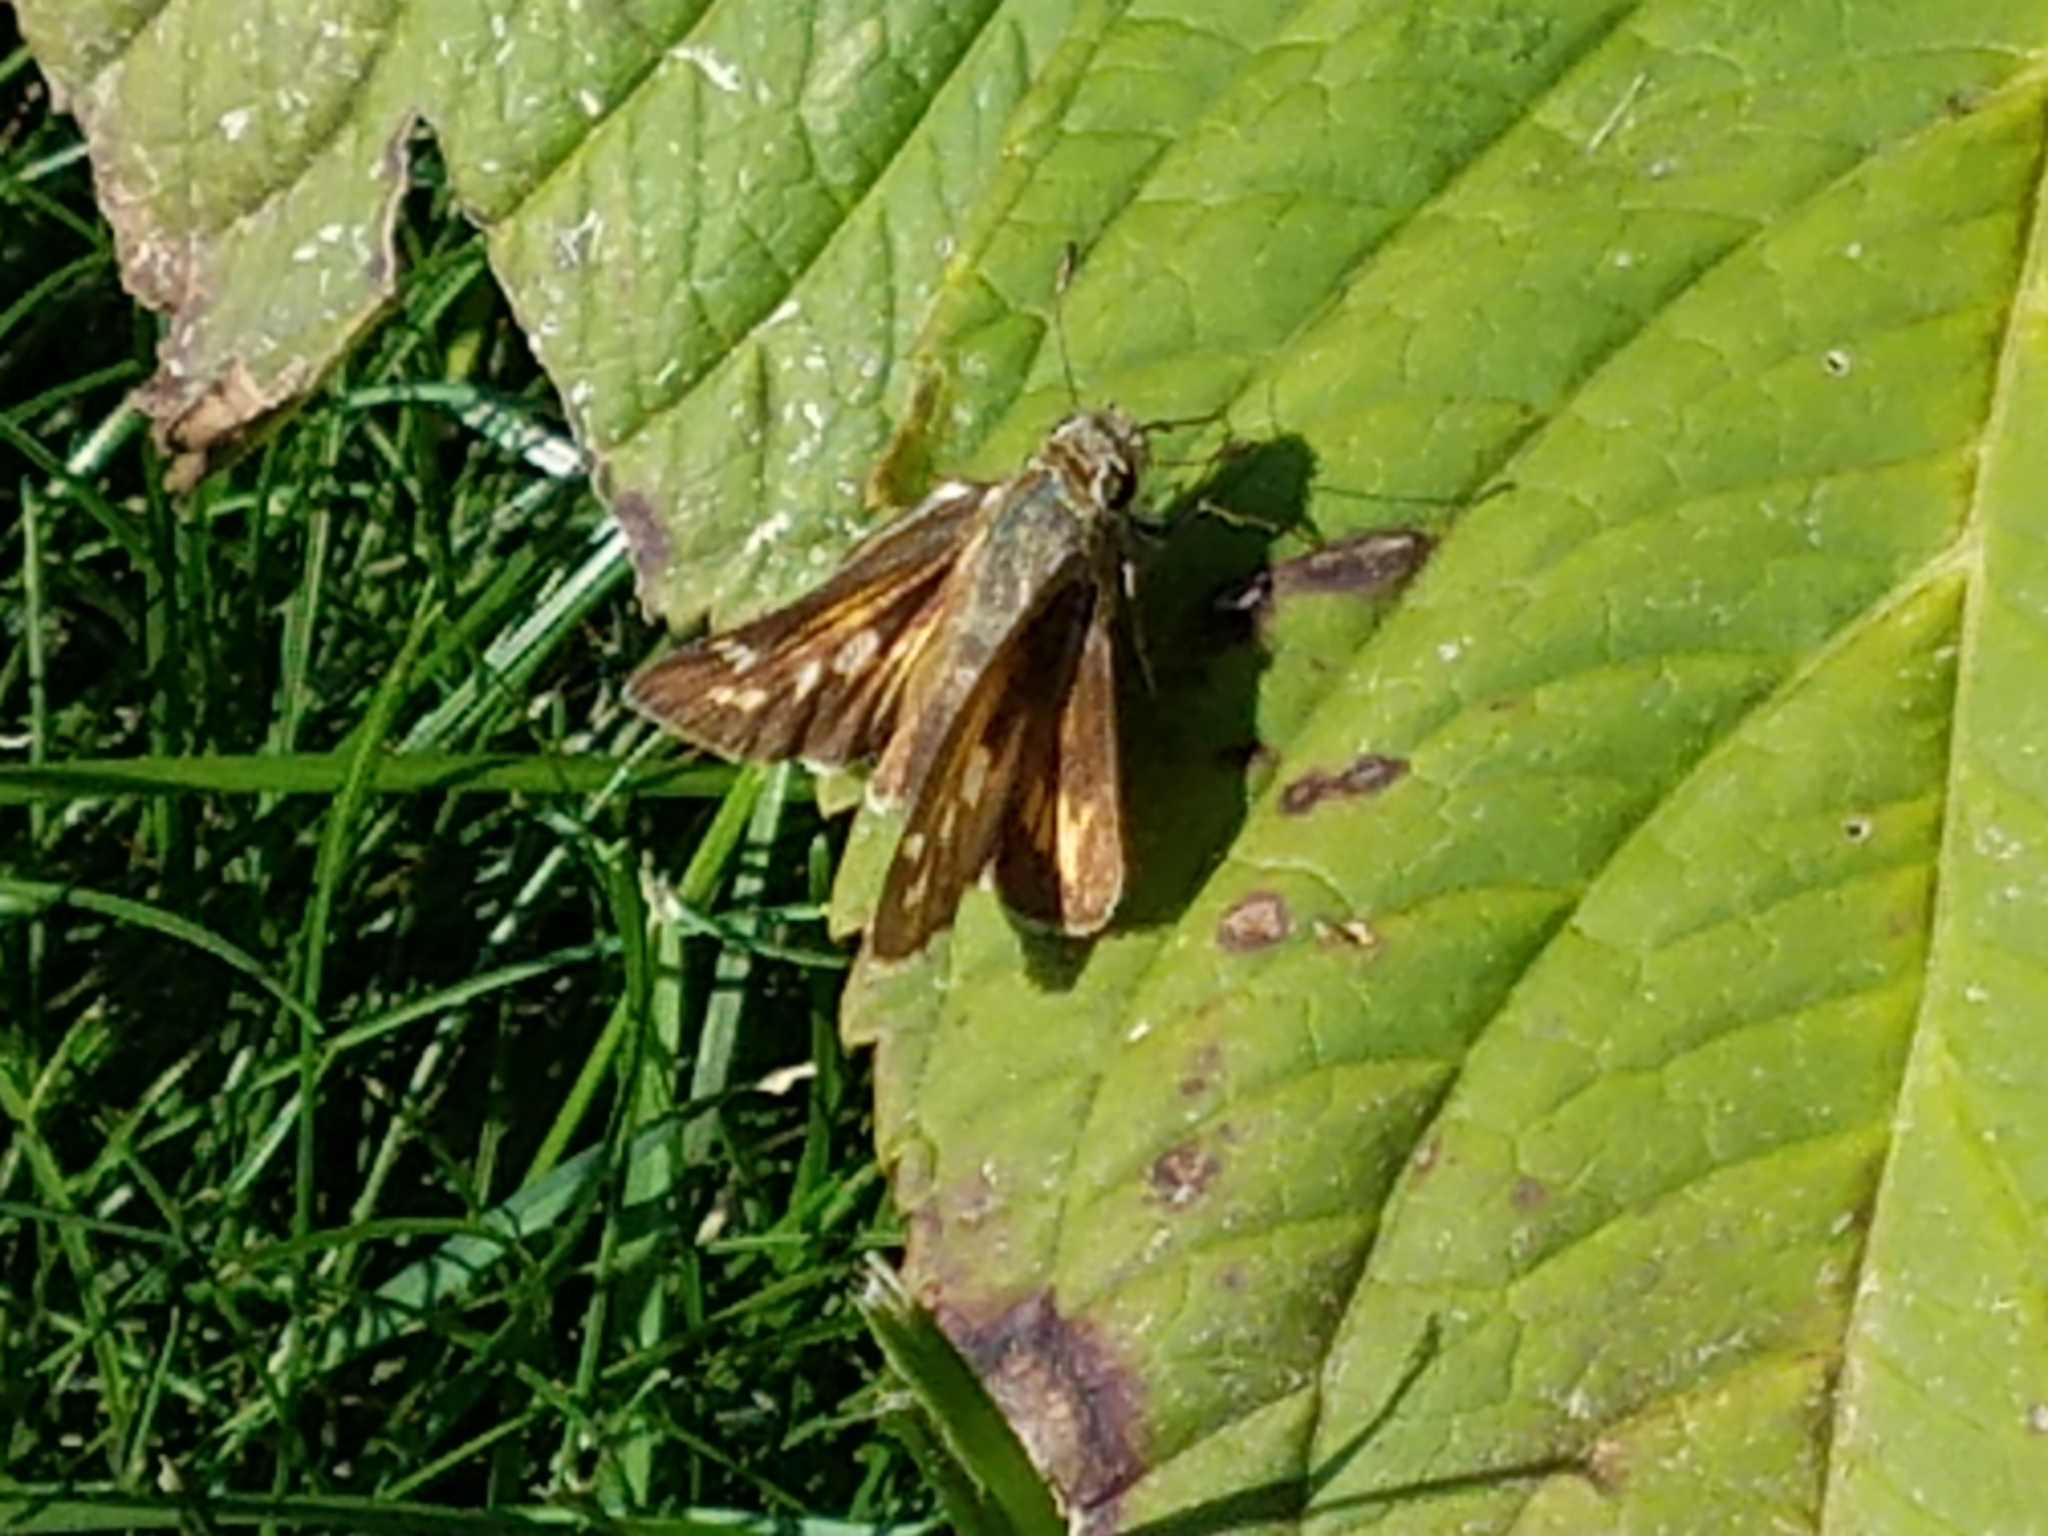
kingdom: Animalia
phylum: Arthropoda
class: Insecta
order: Lepidoptera
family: Hesperiidae
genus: Atalopedes
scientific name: Atalopedes
